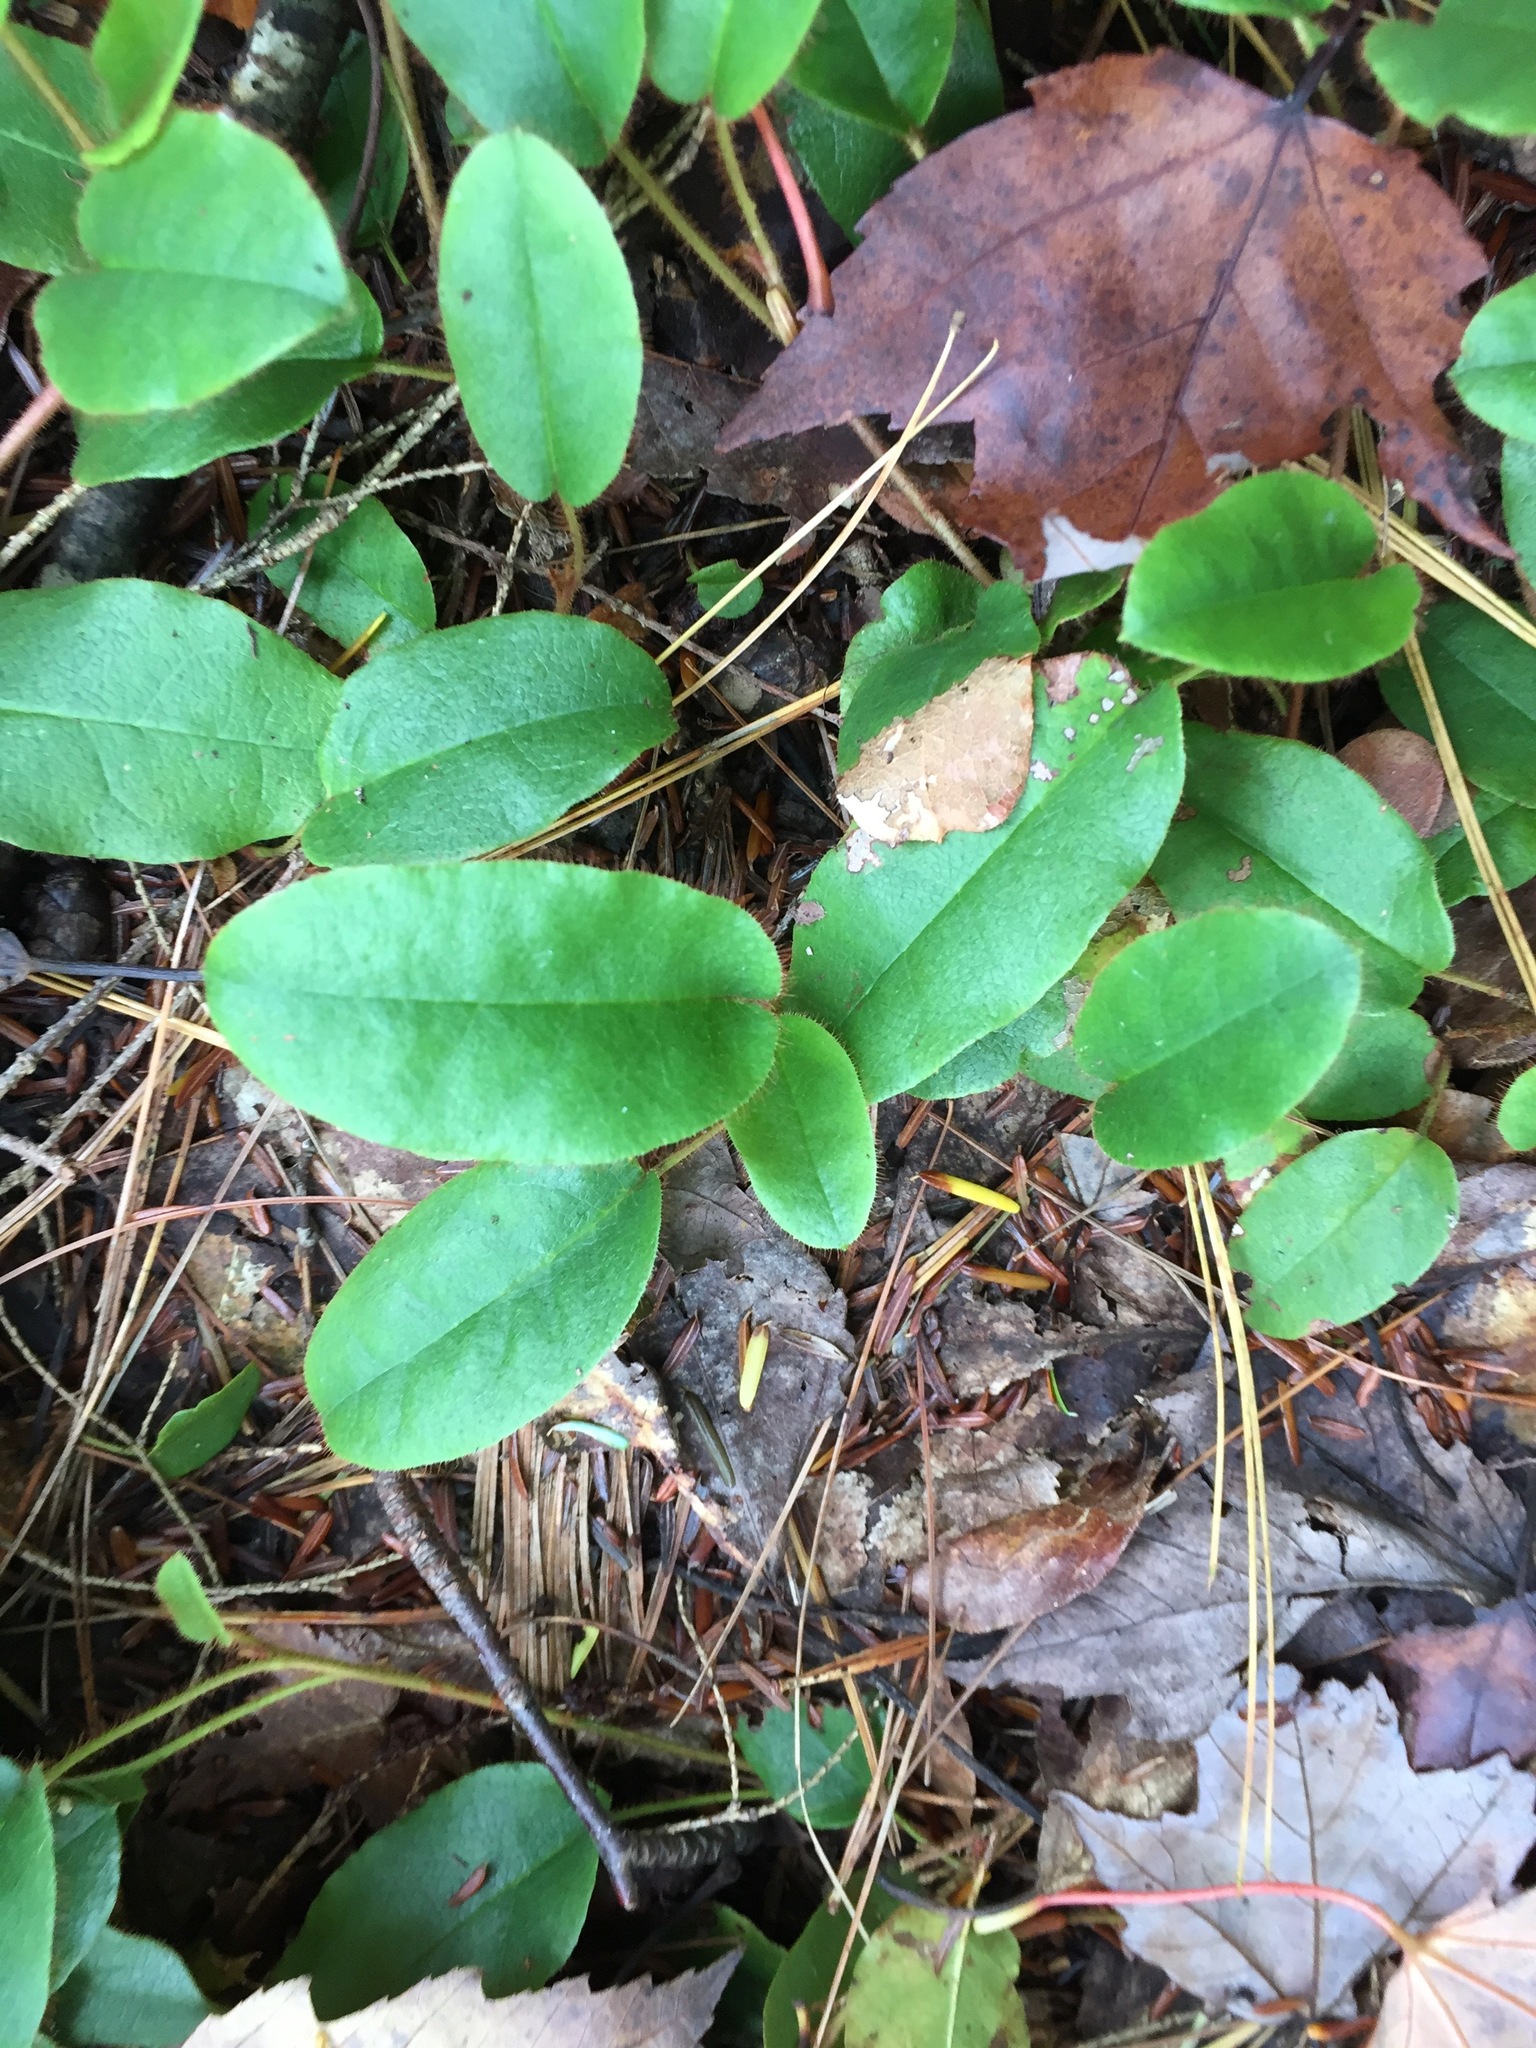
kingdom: Plantae
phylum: Tracheophyta
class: Magnoliopsida
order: Ericales
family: Ericaceae
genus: Epigaea
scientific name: Epigaea repens
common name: Gravelroot
